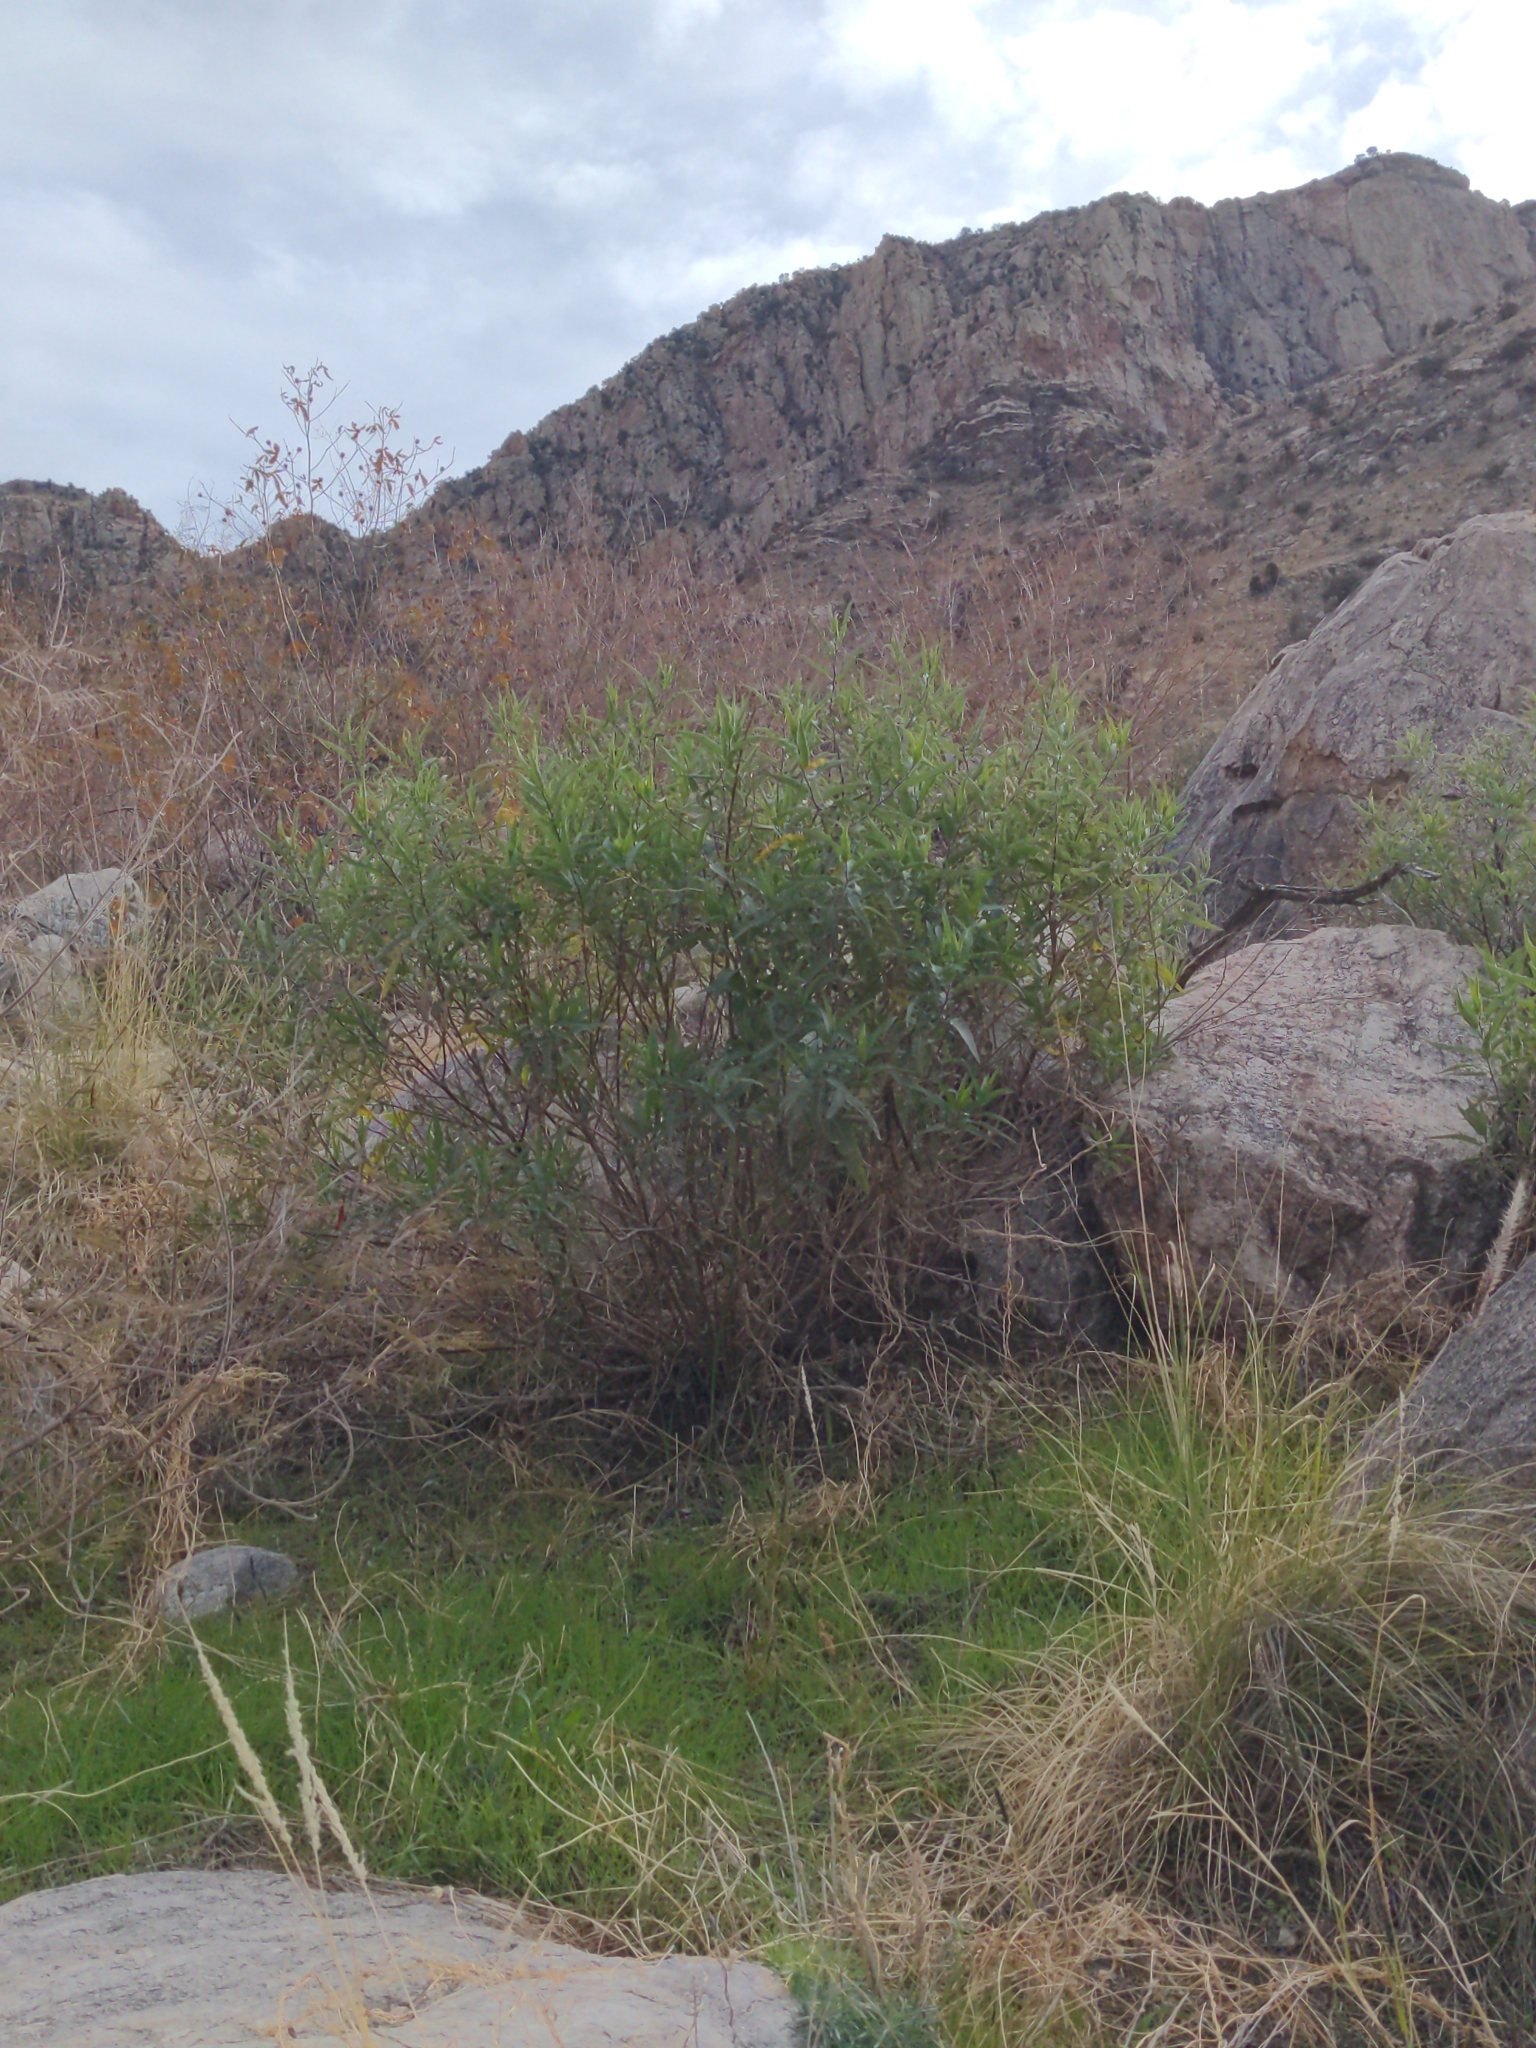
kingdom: Plantae
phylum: Tracheophyta
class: Magnoliopsida
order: Asterales
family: Asteraceae
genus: Ambrosia
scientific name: Ambrosia ambrosioides
